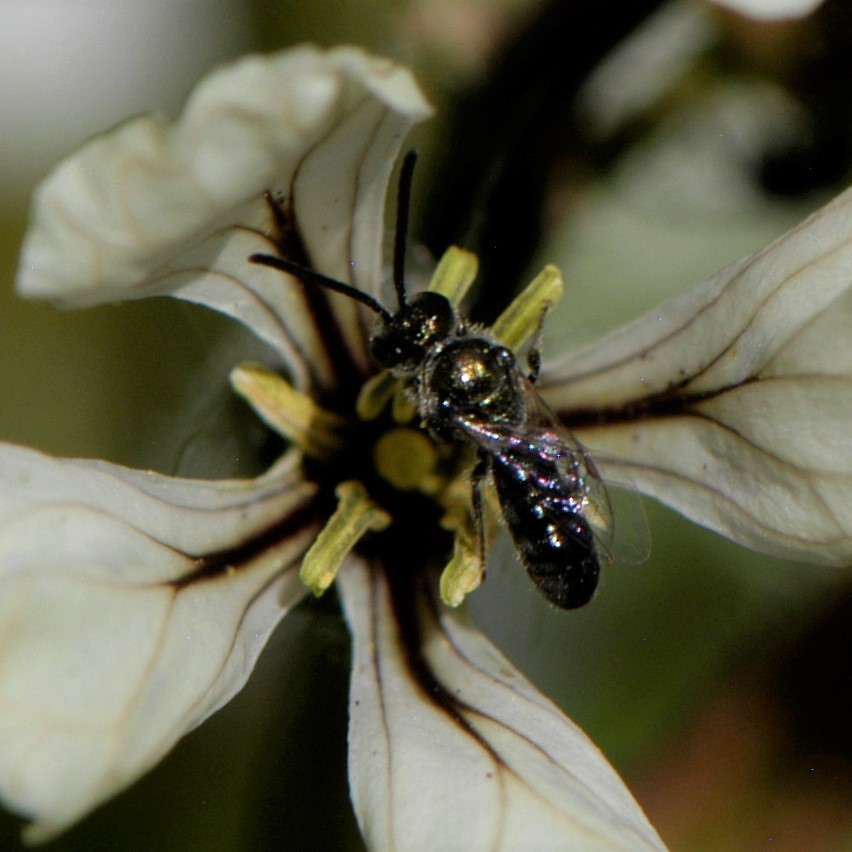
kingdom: Animalia
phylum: Arthropoda
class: Insecta
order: Hymenoptera
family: Halictidae
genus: Dialictus
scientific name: Dialictus
